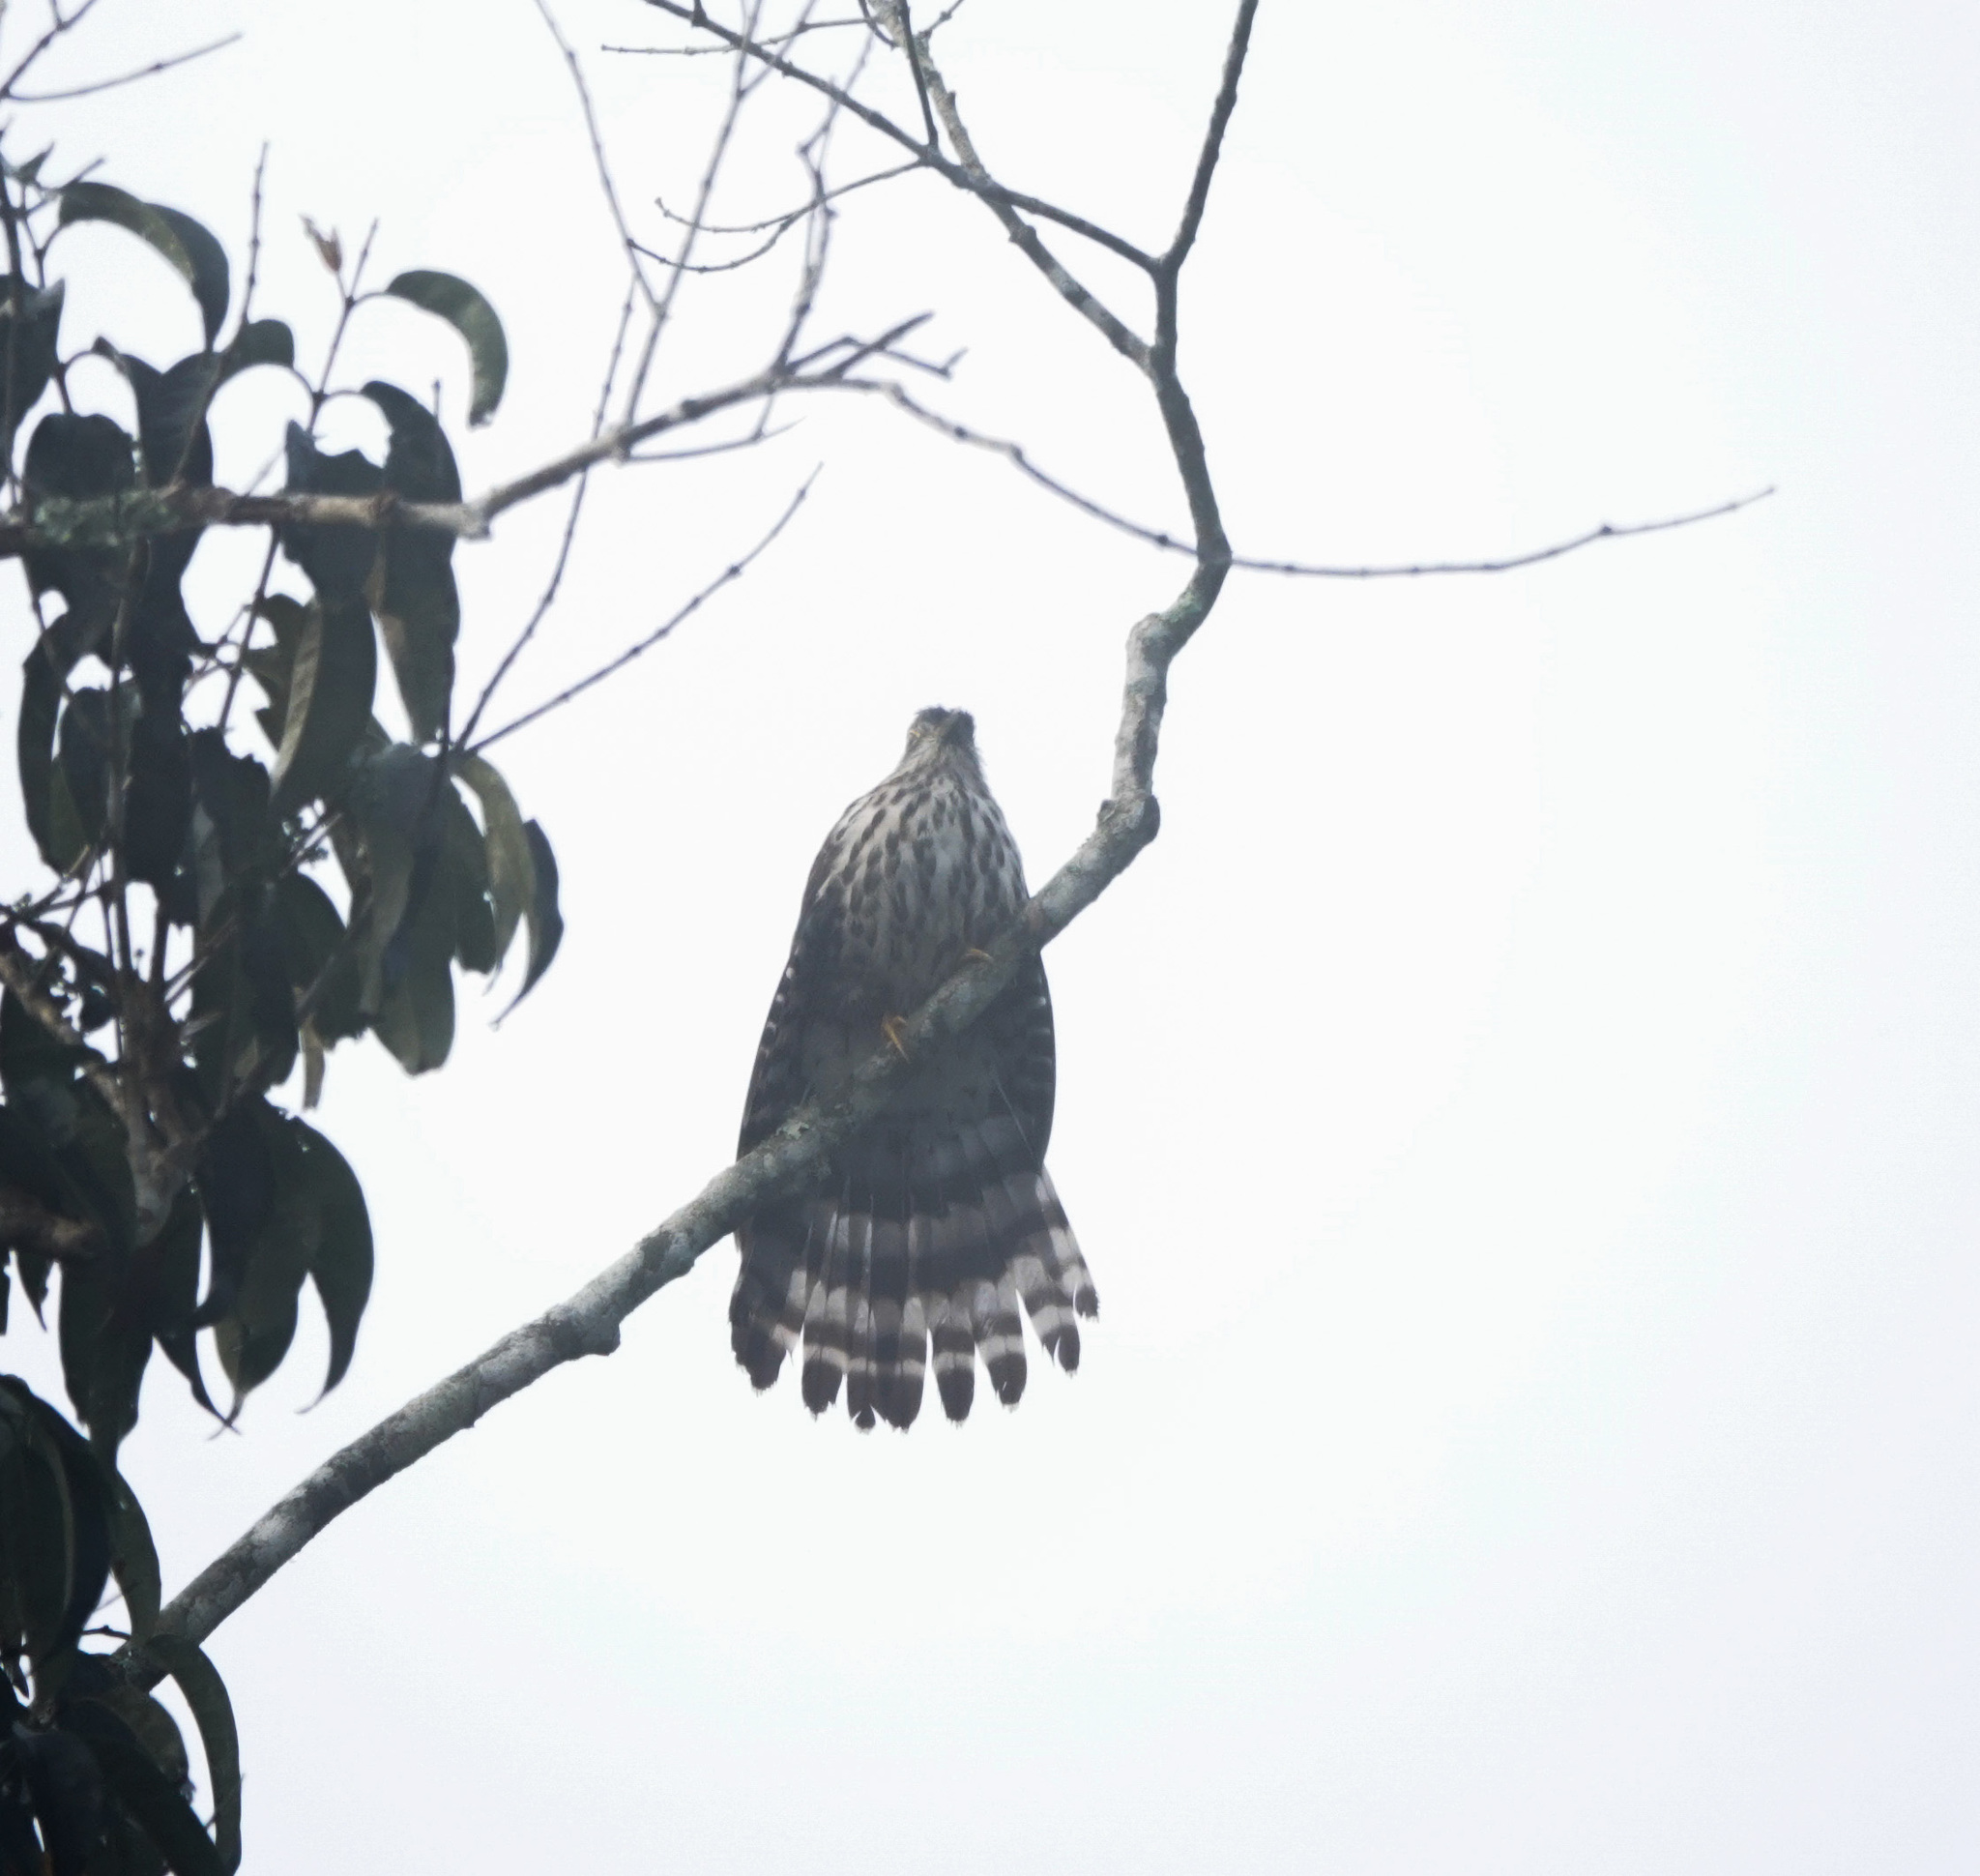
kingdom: Animalia
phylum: Chordata
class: Aves
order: Cuculiformes
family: Cuculidae
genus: Cuculus
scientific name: Cuculus sparverioides
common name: Large hawk cuckoo
